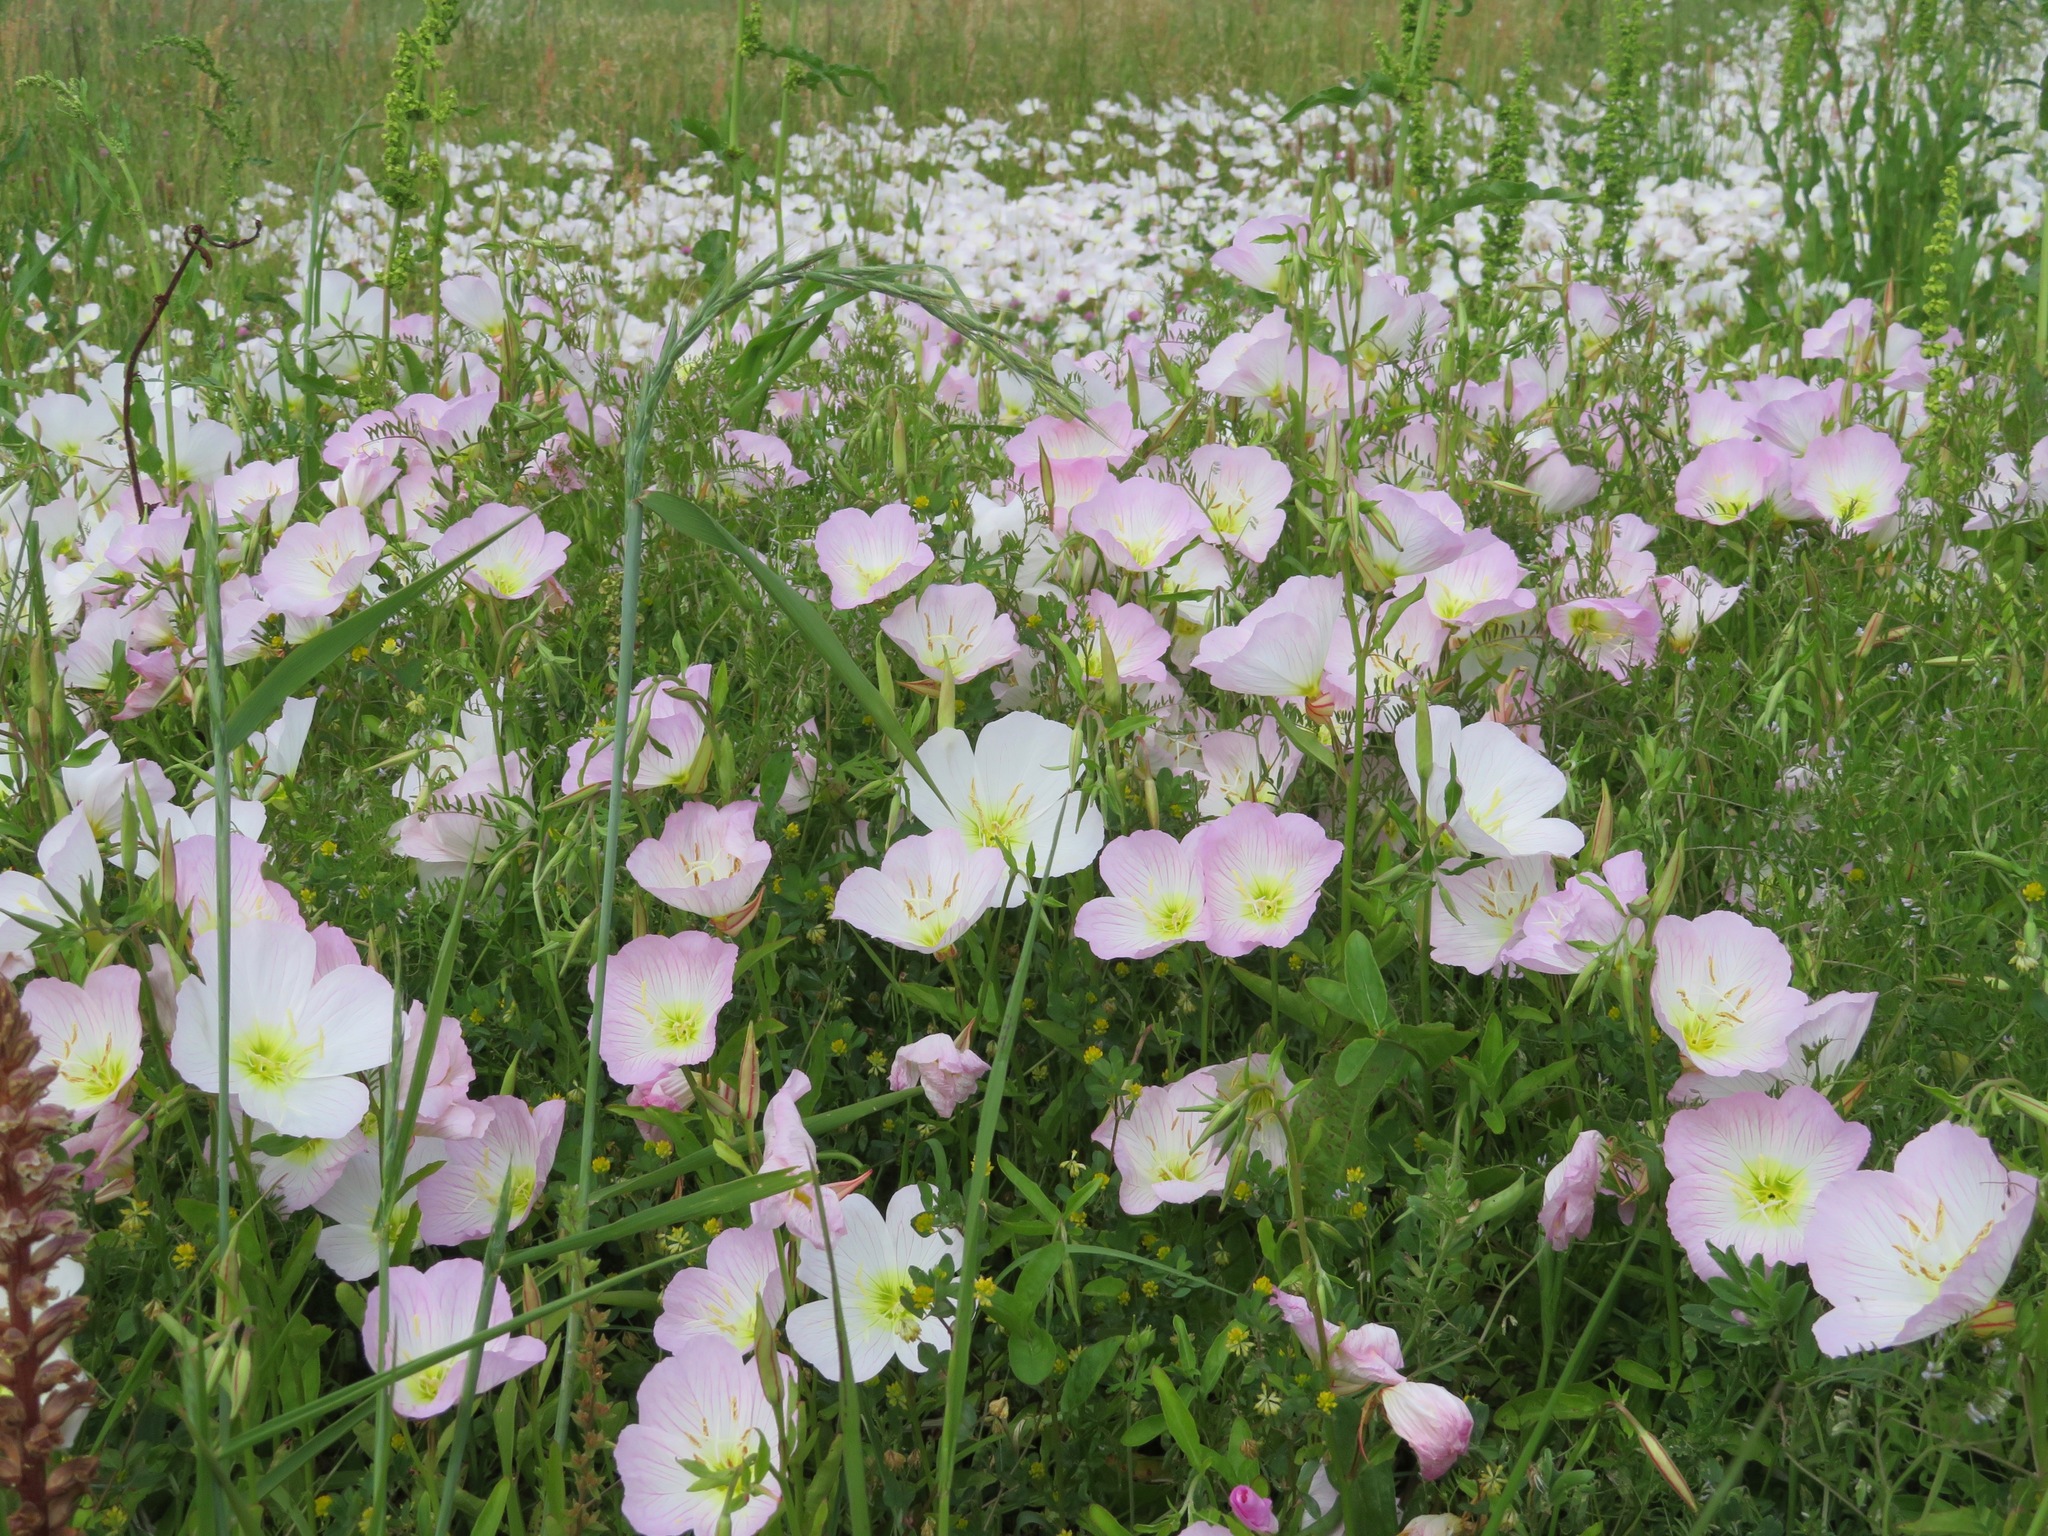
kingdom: Plantae
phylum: Tracheophyta
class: Magnoliopsida
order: Myrtales
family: Onagraceae
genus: Oenothera
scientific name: Oenothera speciosa
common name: White evening-primrose
